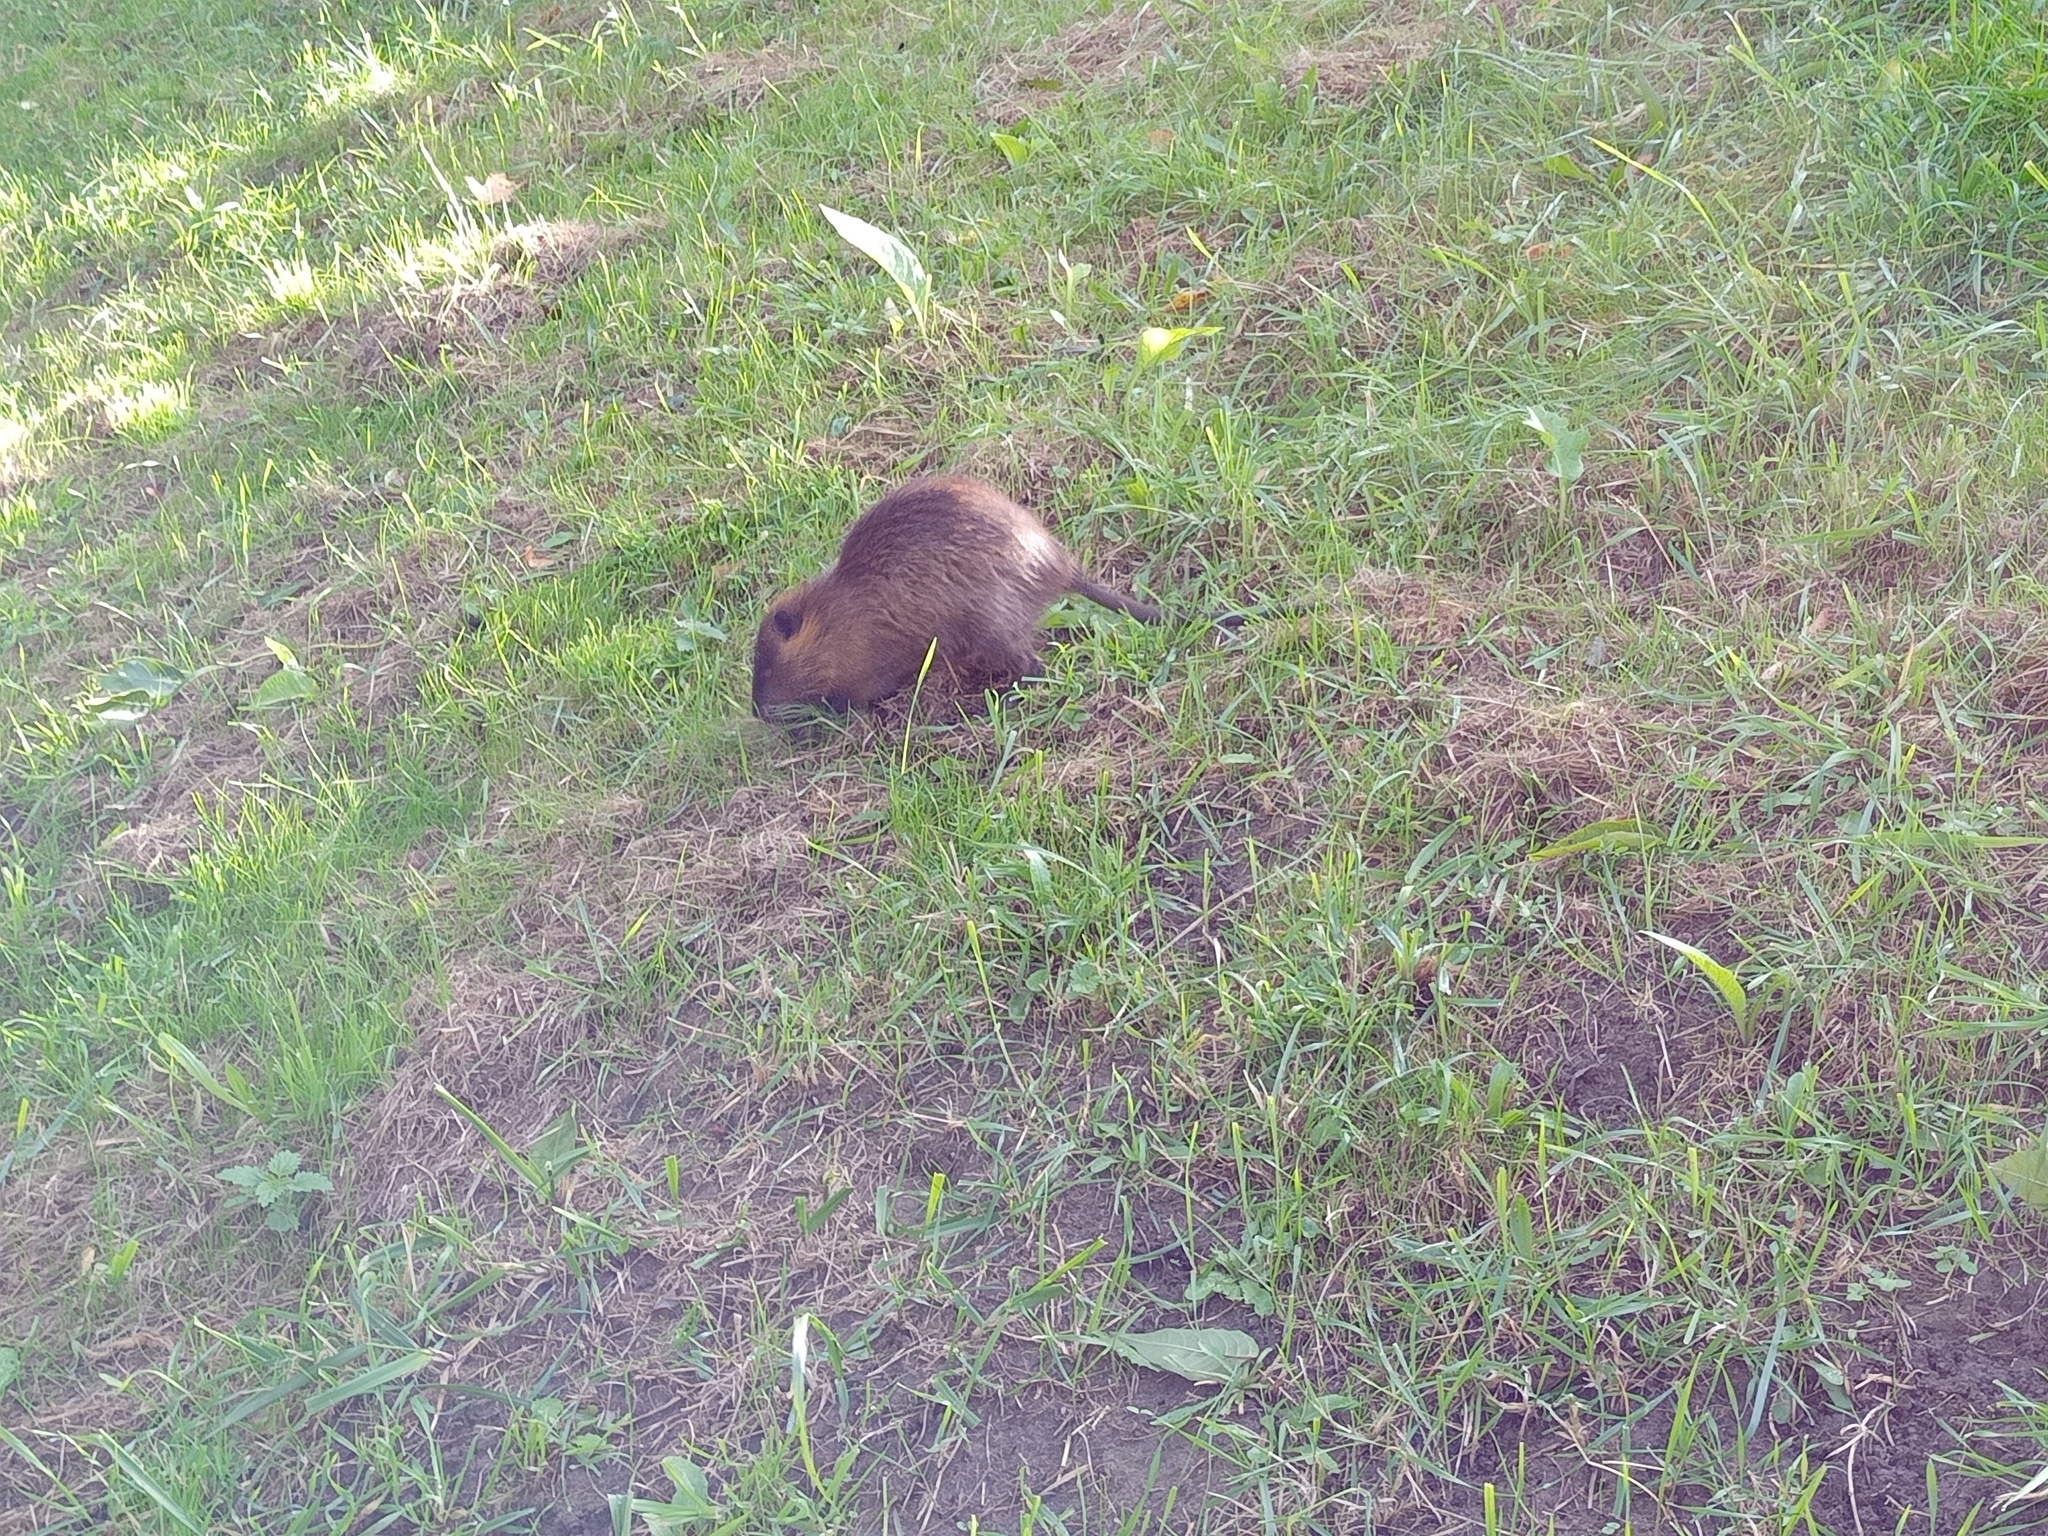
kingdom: Animalia
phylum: Chordata
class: Mammalia
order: Rodentia
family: Myocastoridae
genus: Myocastor
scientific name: Myocastor coypus
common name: Coypu
